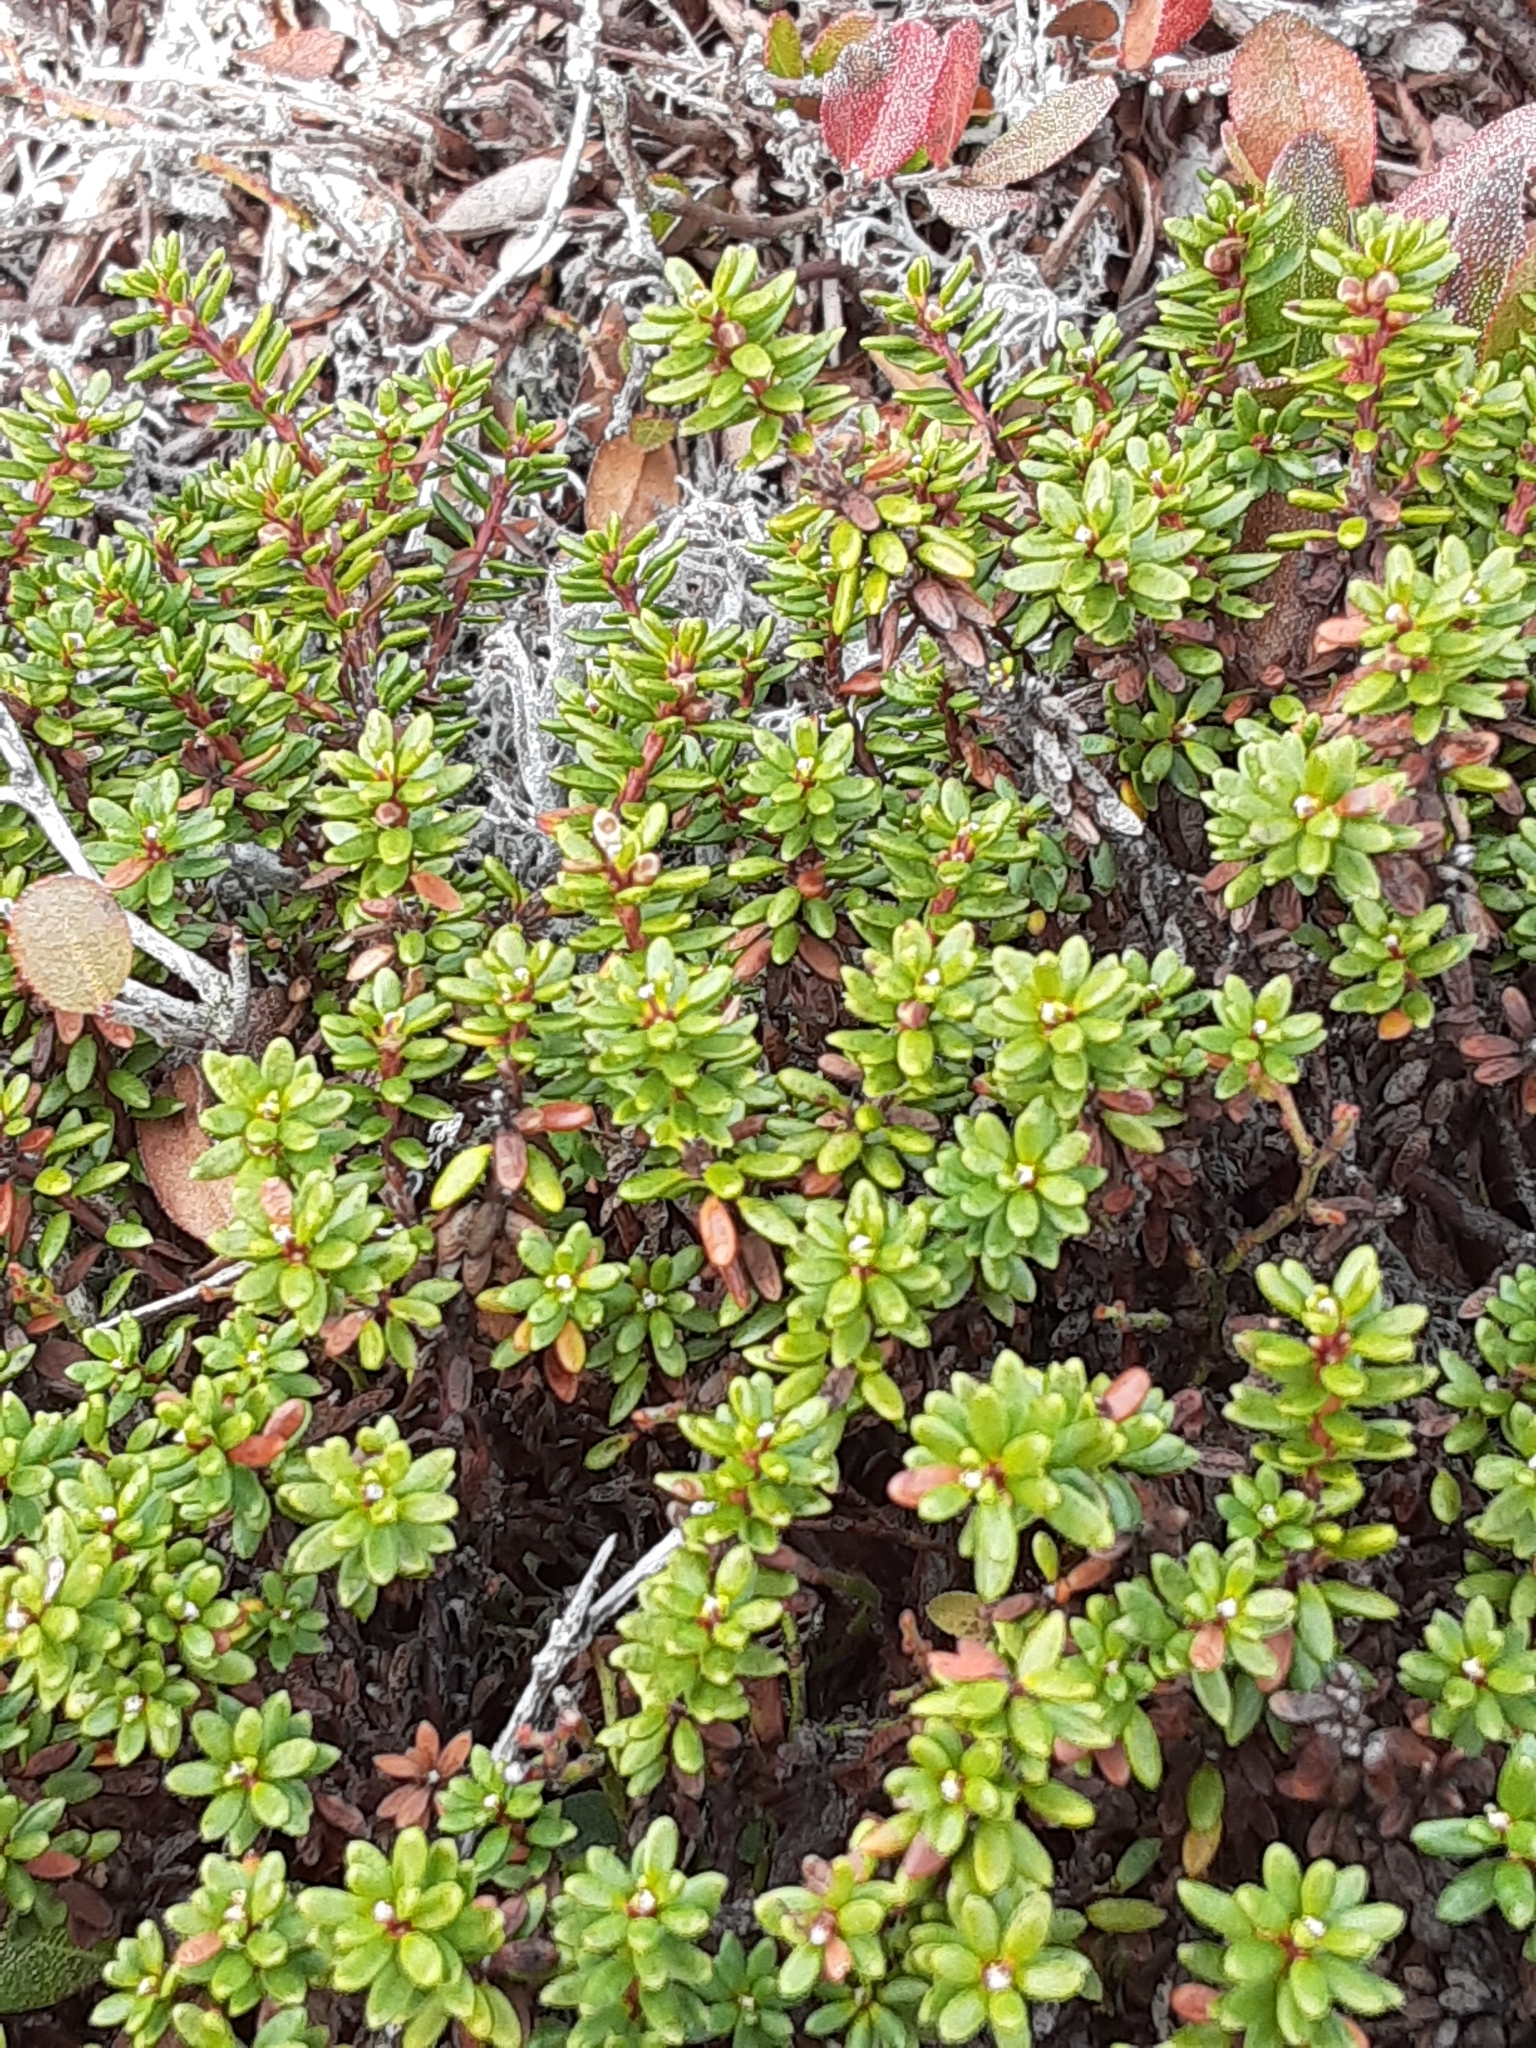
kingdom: Plantae
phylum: Tracheophyta
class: Magnoliopsida
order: Ericales
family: Ericaceae
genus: Empetrum
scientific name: Empetrum nigrum
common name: Black crowberry
